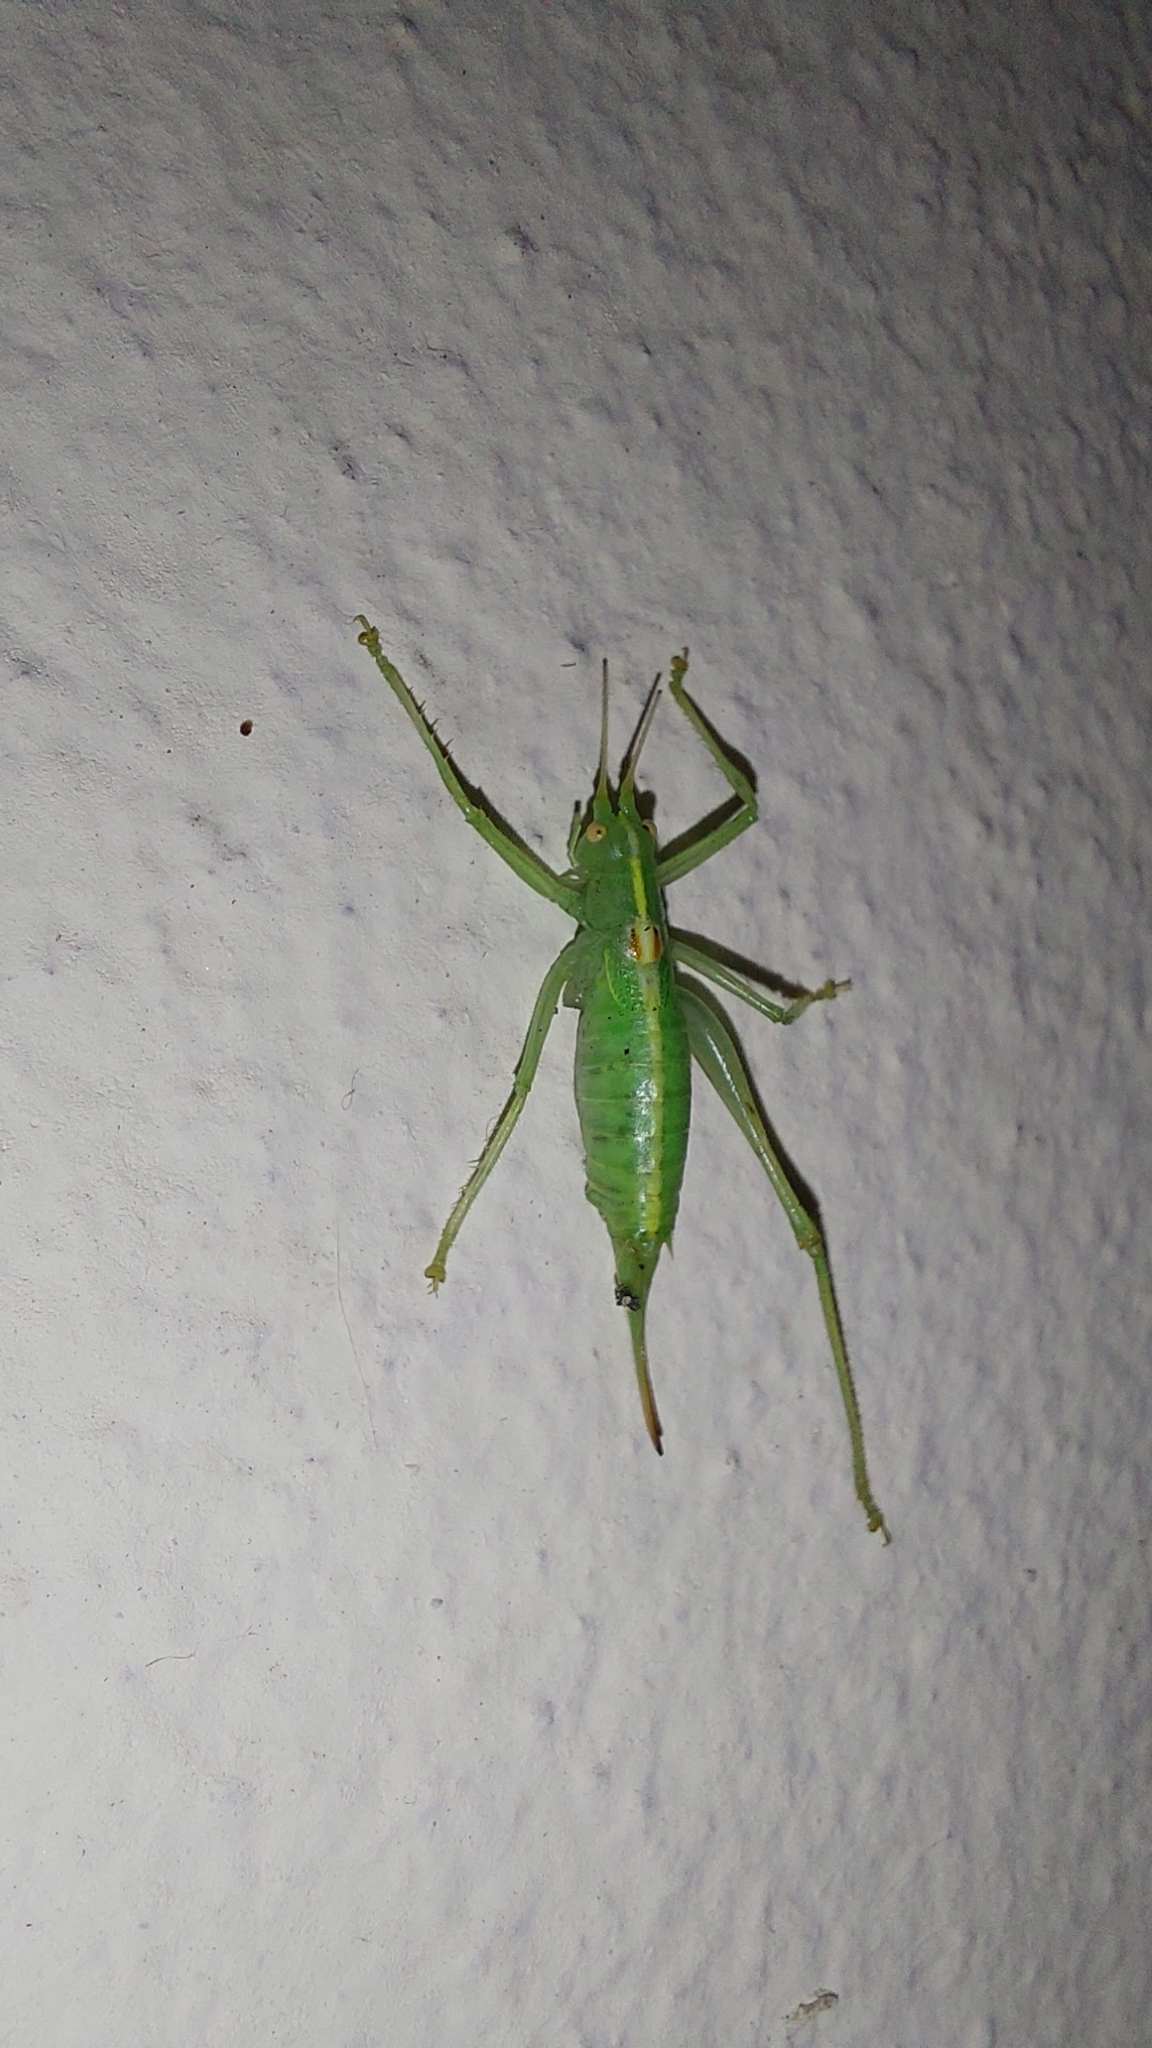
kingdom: Animalia
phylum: Arthropoda
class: Insecta
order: Orthoptera
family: Tettigoniidae
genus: Meconema
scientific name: Meconema meridionale
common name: Southern oak bush-cricket
